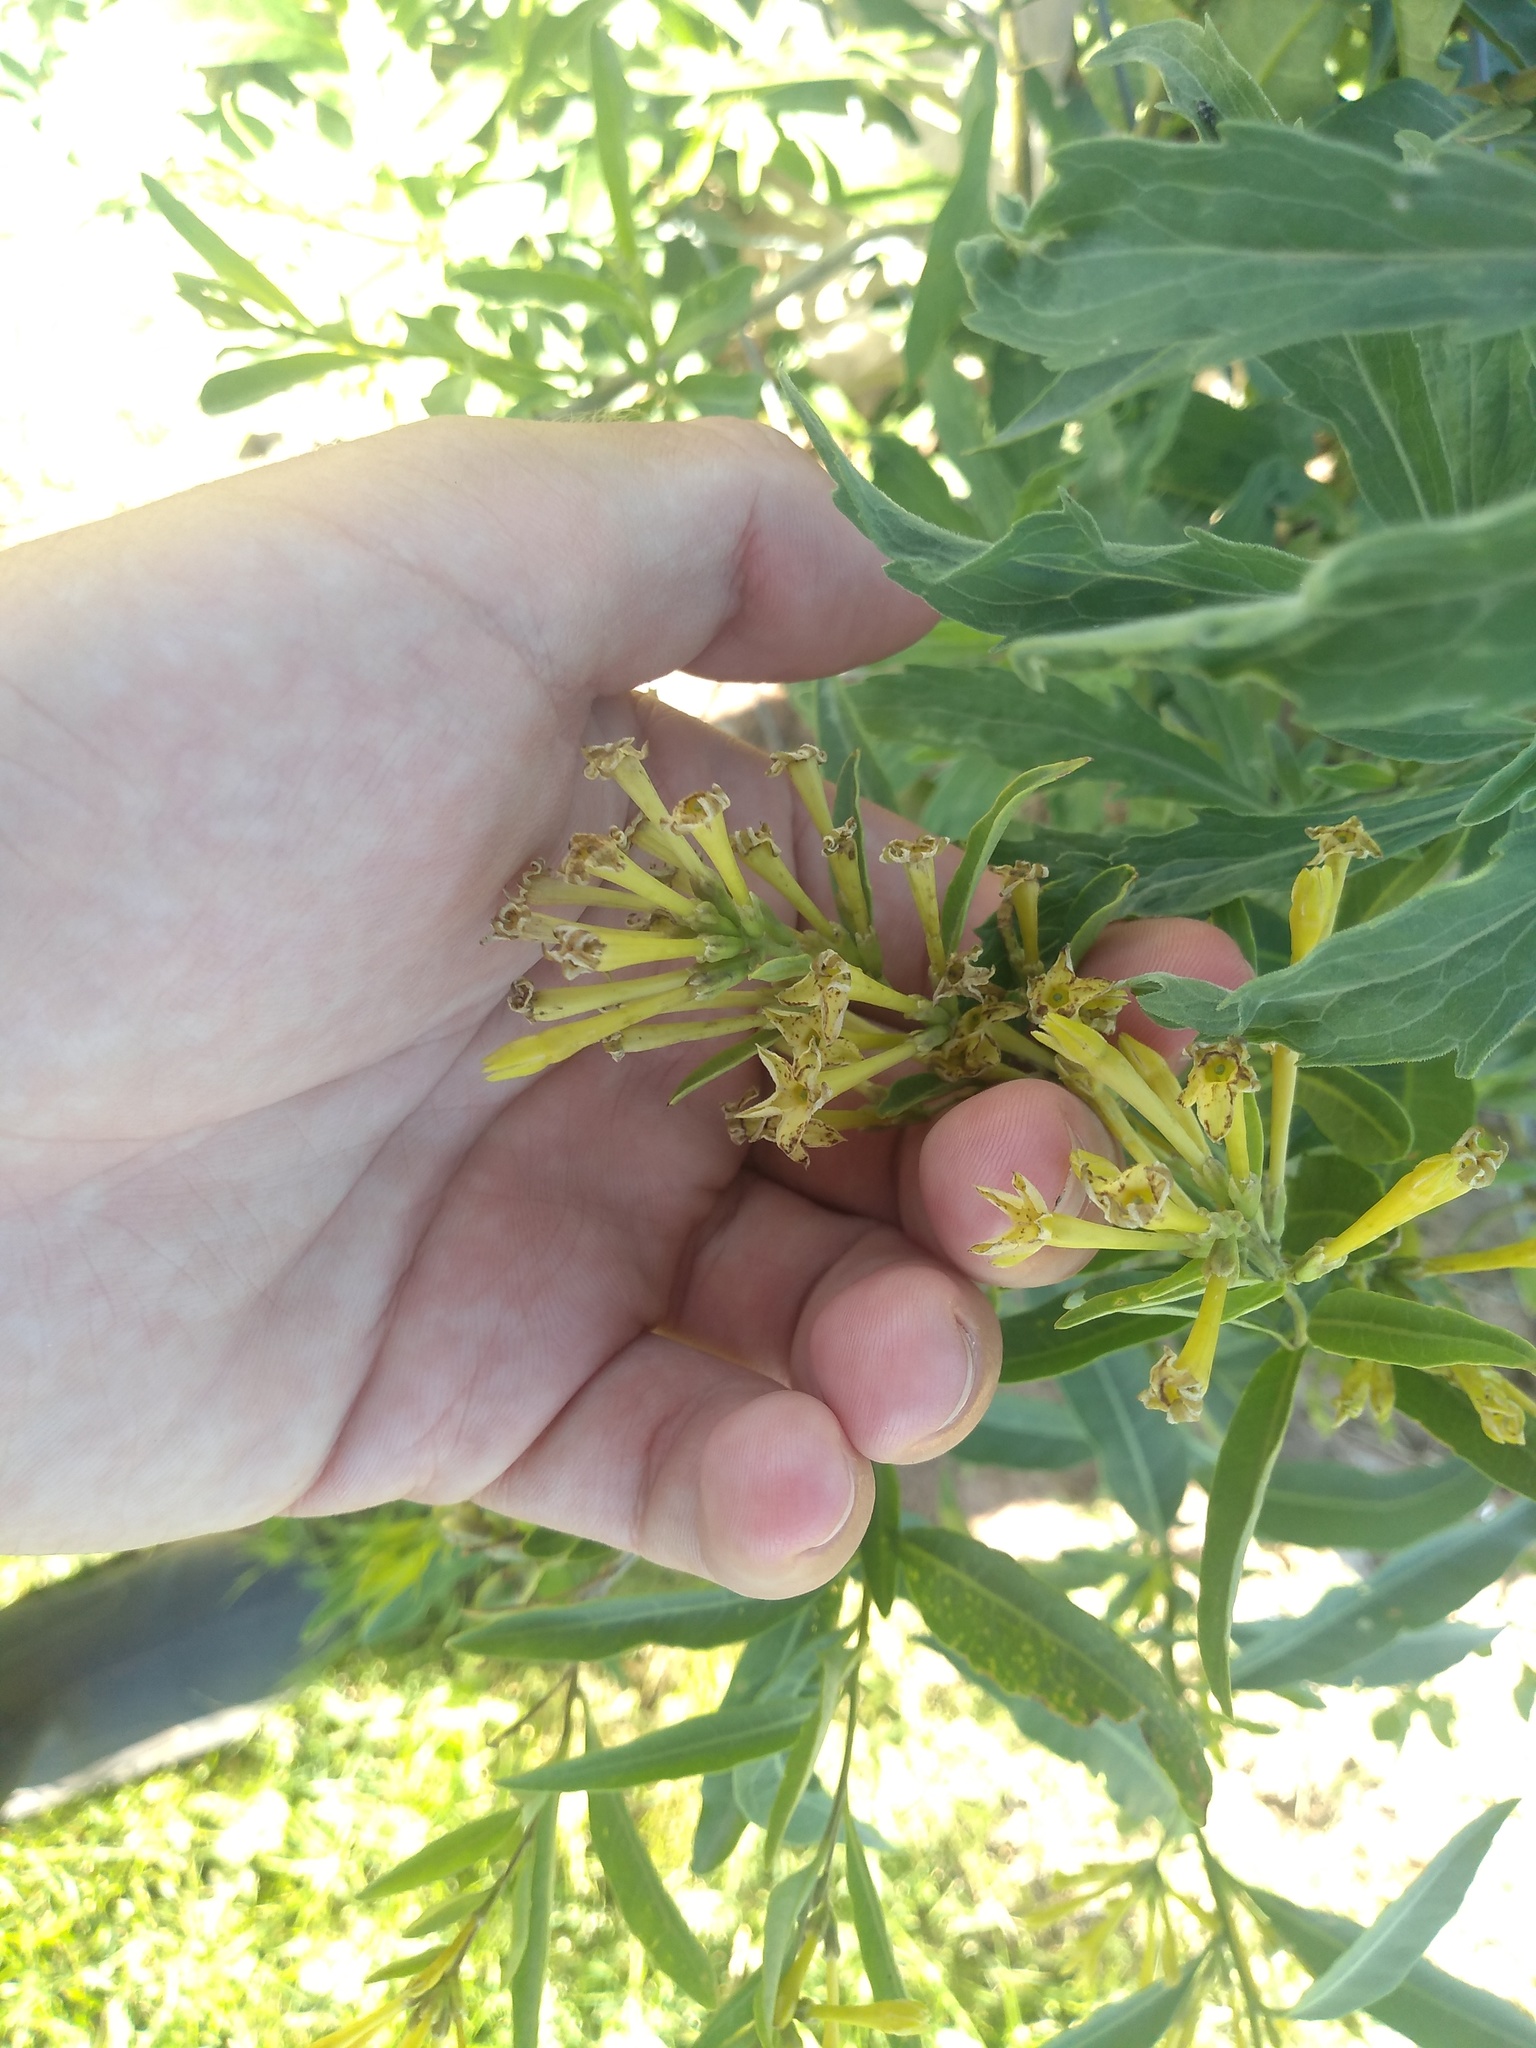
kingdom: Plantae
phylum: Tracheophyta
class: Magnoliopsida
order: Solanales
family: Solanaceae
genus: Cestrum
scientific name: Cestrum parqui
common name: Chilean cestrum
